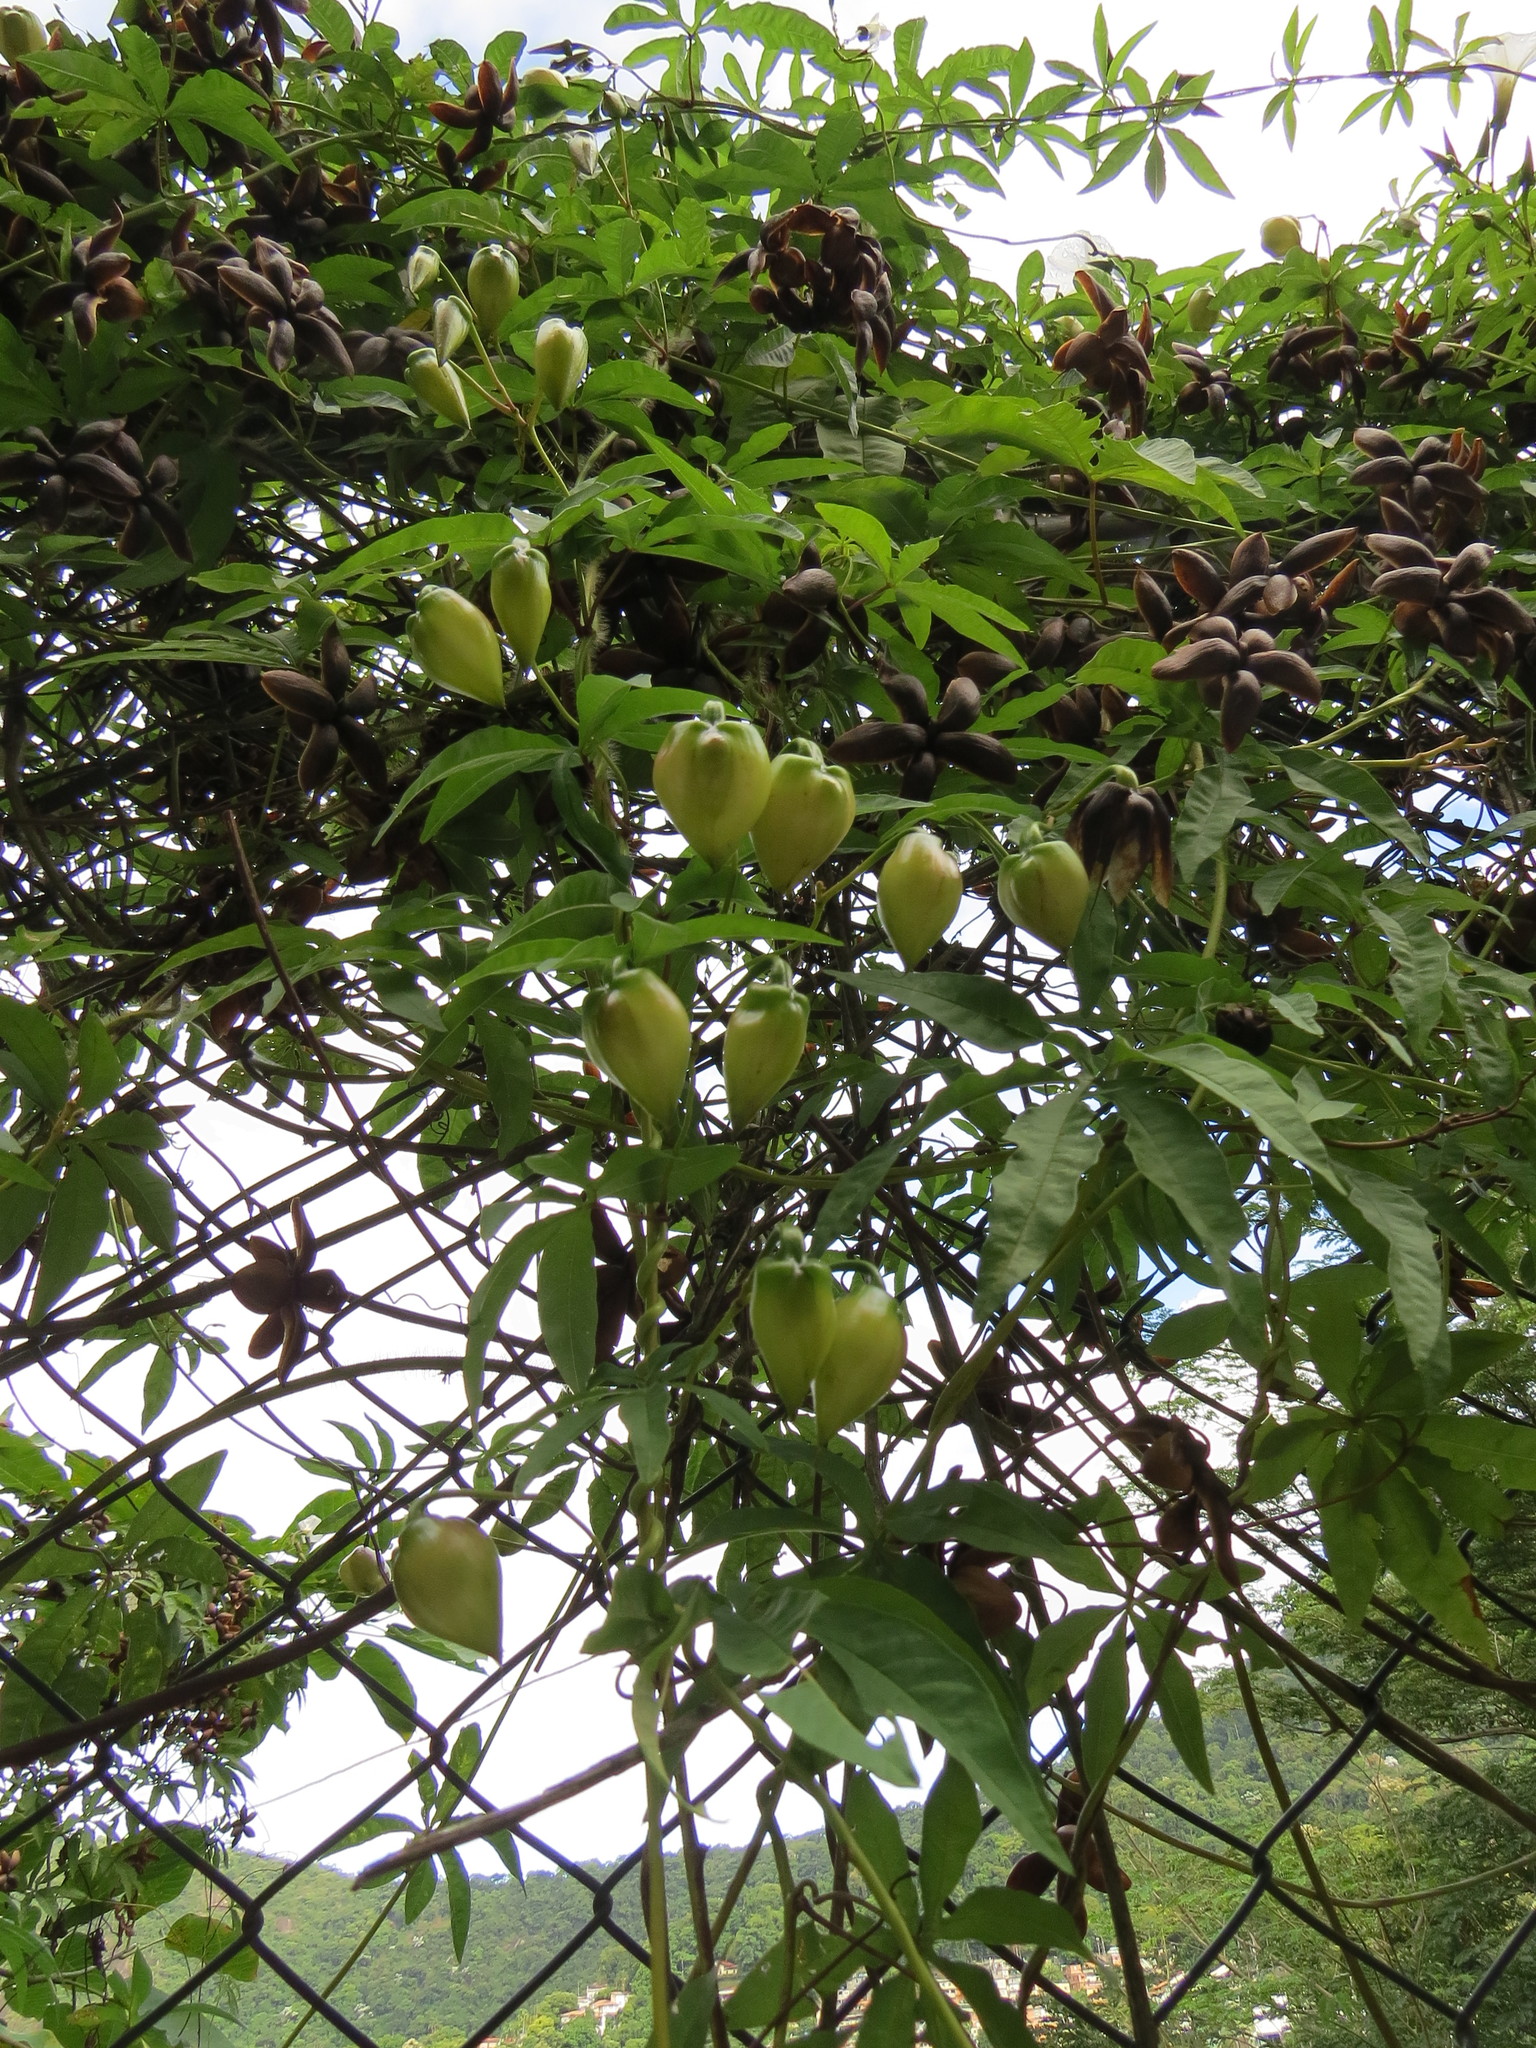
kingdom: Plantae
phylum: Tracheophyta
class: Magnoliopsida
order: Solanales
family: Convolvulaceae
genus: Distimake
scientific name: Distimake dissectus
